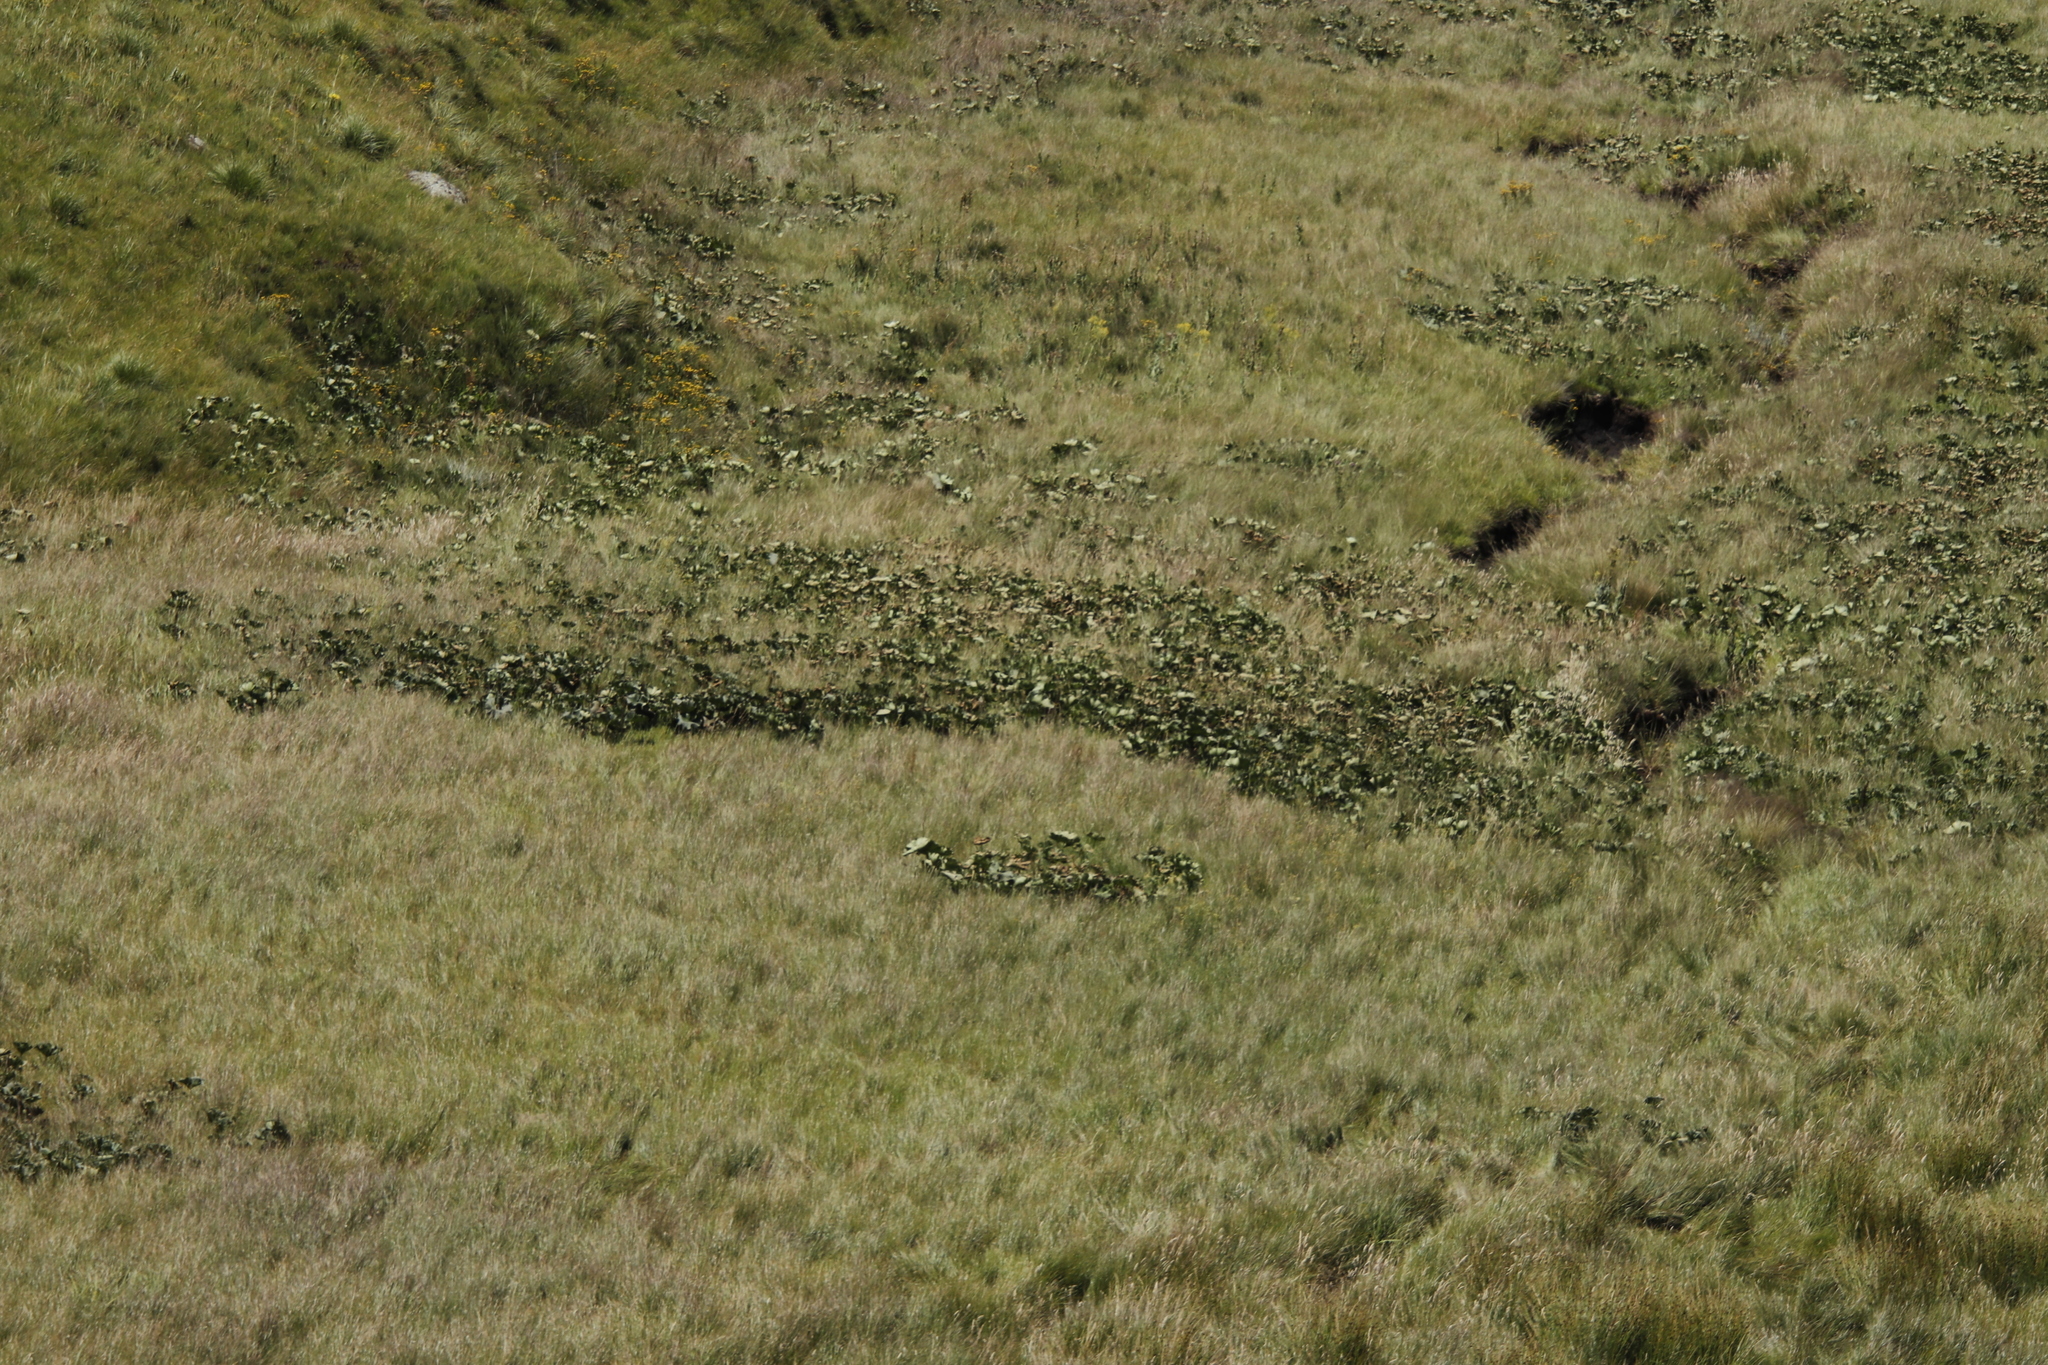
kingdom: Plantae
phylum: Tracheophyta
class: Magnoliopsida
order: Gunnerales
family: Gunneraceae
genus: Gunnera
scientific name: Gunnera perpensa
